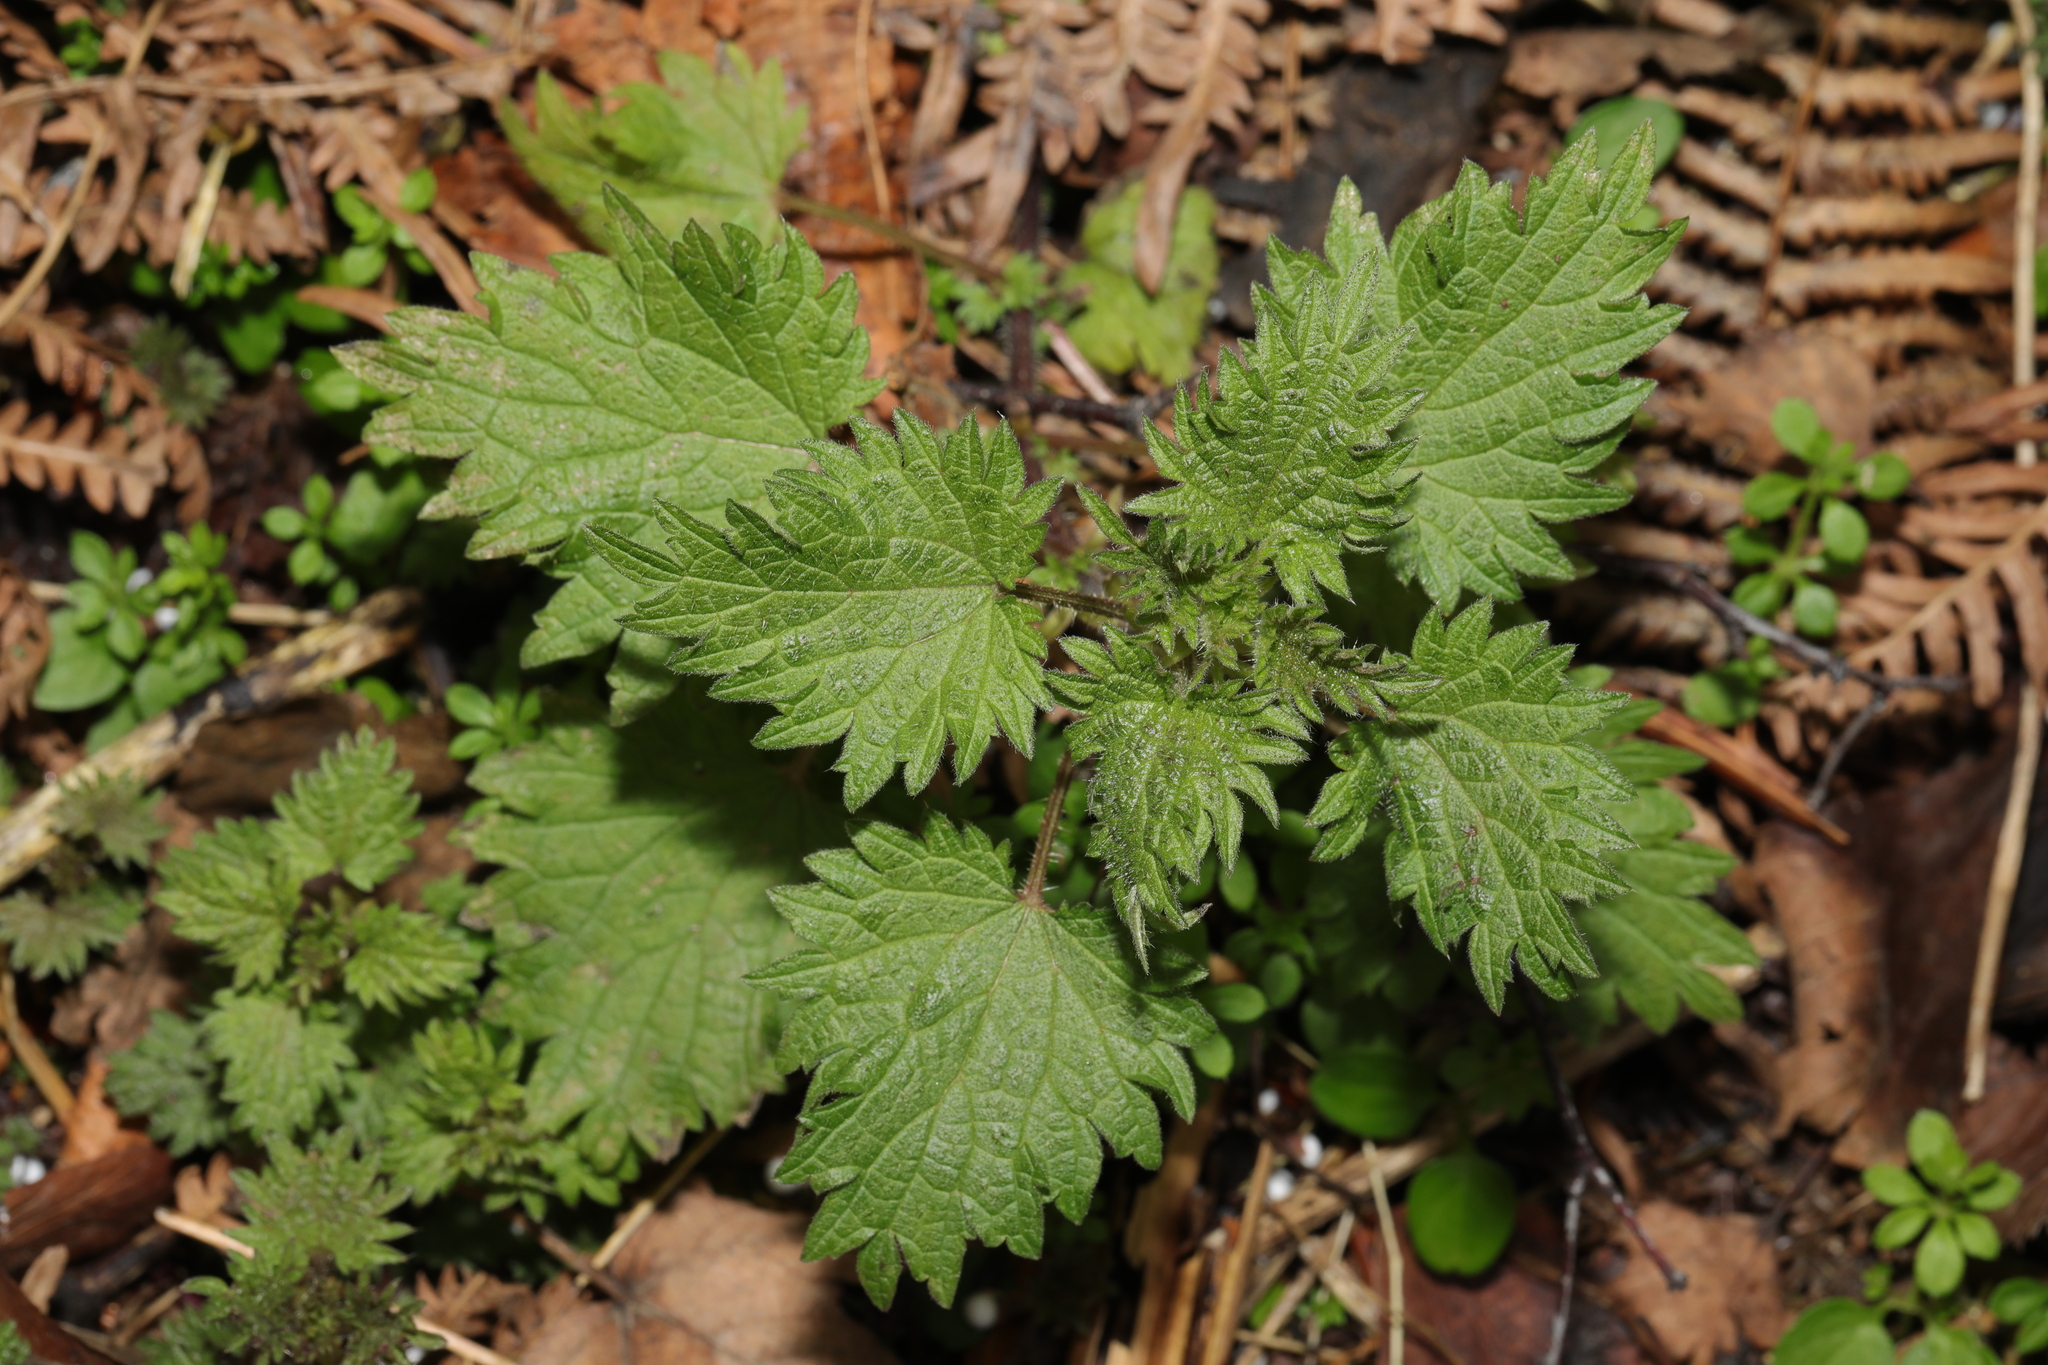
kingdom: Plantae
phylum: Tracheophyta
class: Magnoliopsida
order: Rosales
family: Urticaceae
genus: Urtica
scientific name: Urtica dioica
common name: Common nettle
